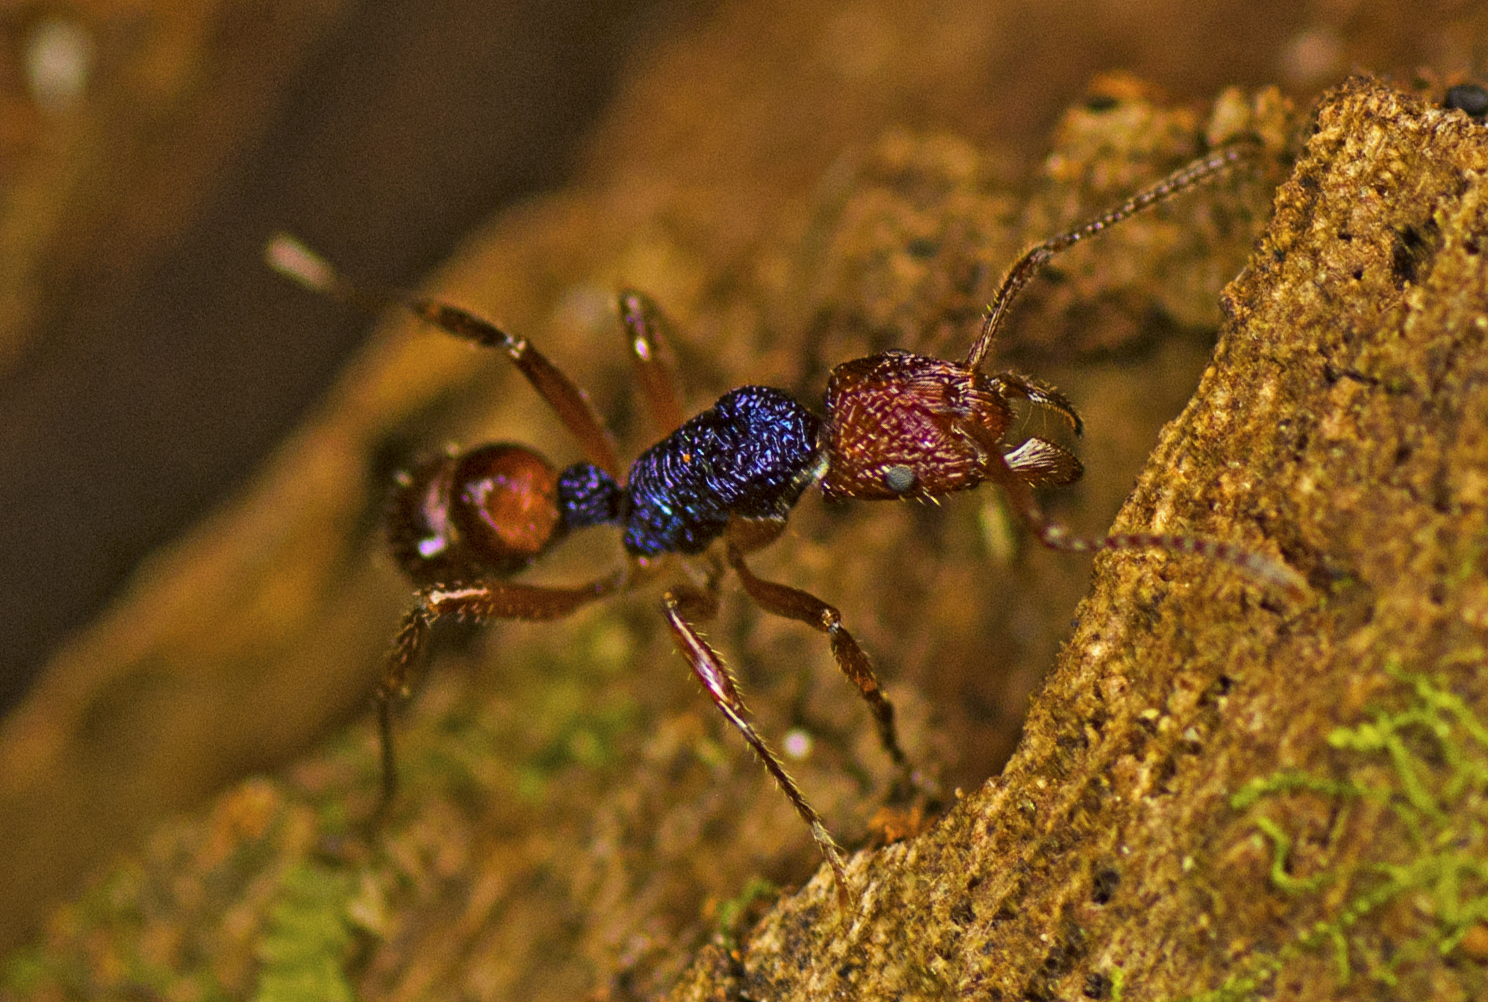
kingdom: Animalia
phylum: Arthropoda
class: Insecta
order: Hymenoptera
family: Formicidae
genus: Rhytidoponera
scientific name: Rhytidoponera croesus
